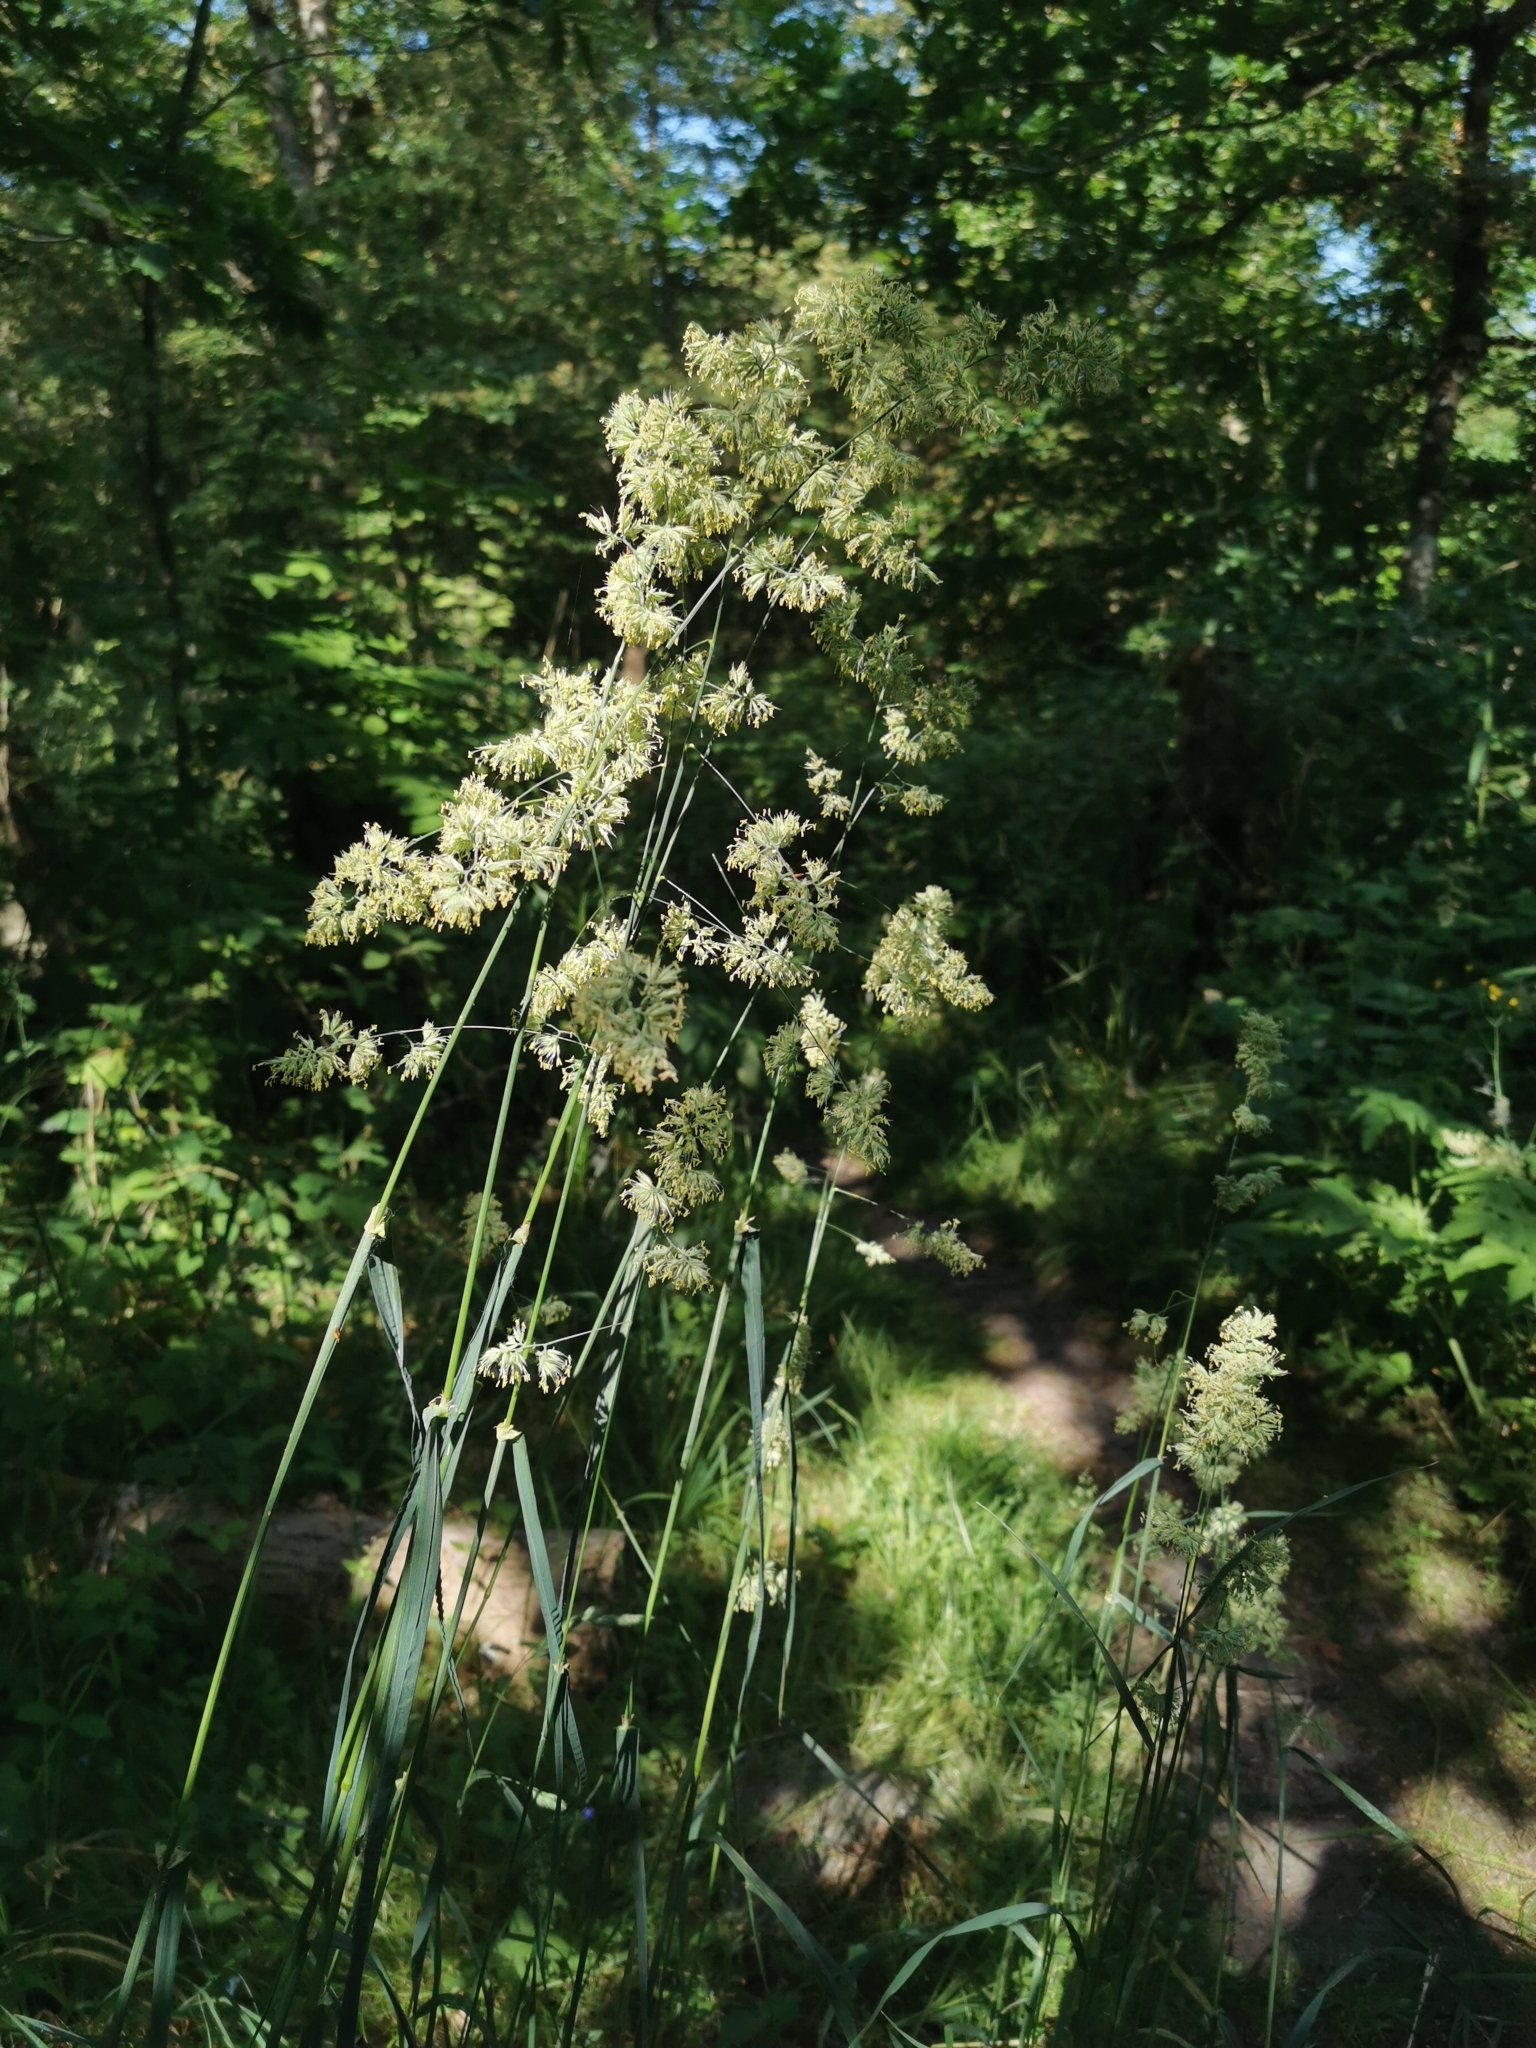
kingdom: Plantae
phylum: Tracheophyta
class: Liliopsida
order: Poales
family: Poaceae
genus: Dactylis
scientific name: Dactylis glomerata
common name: Orchardgrass
